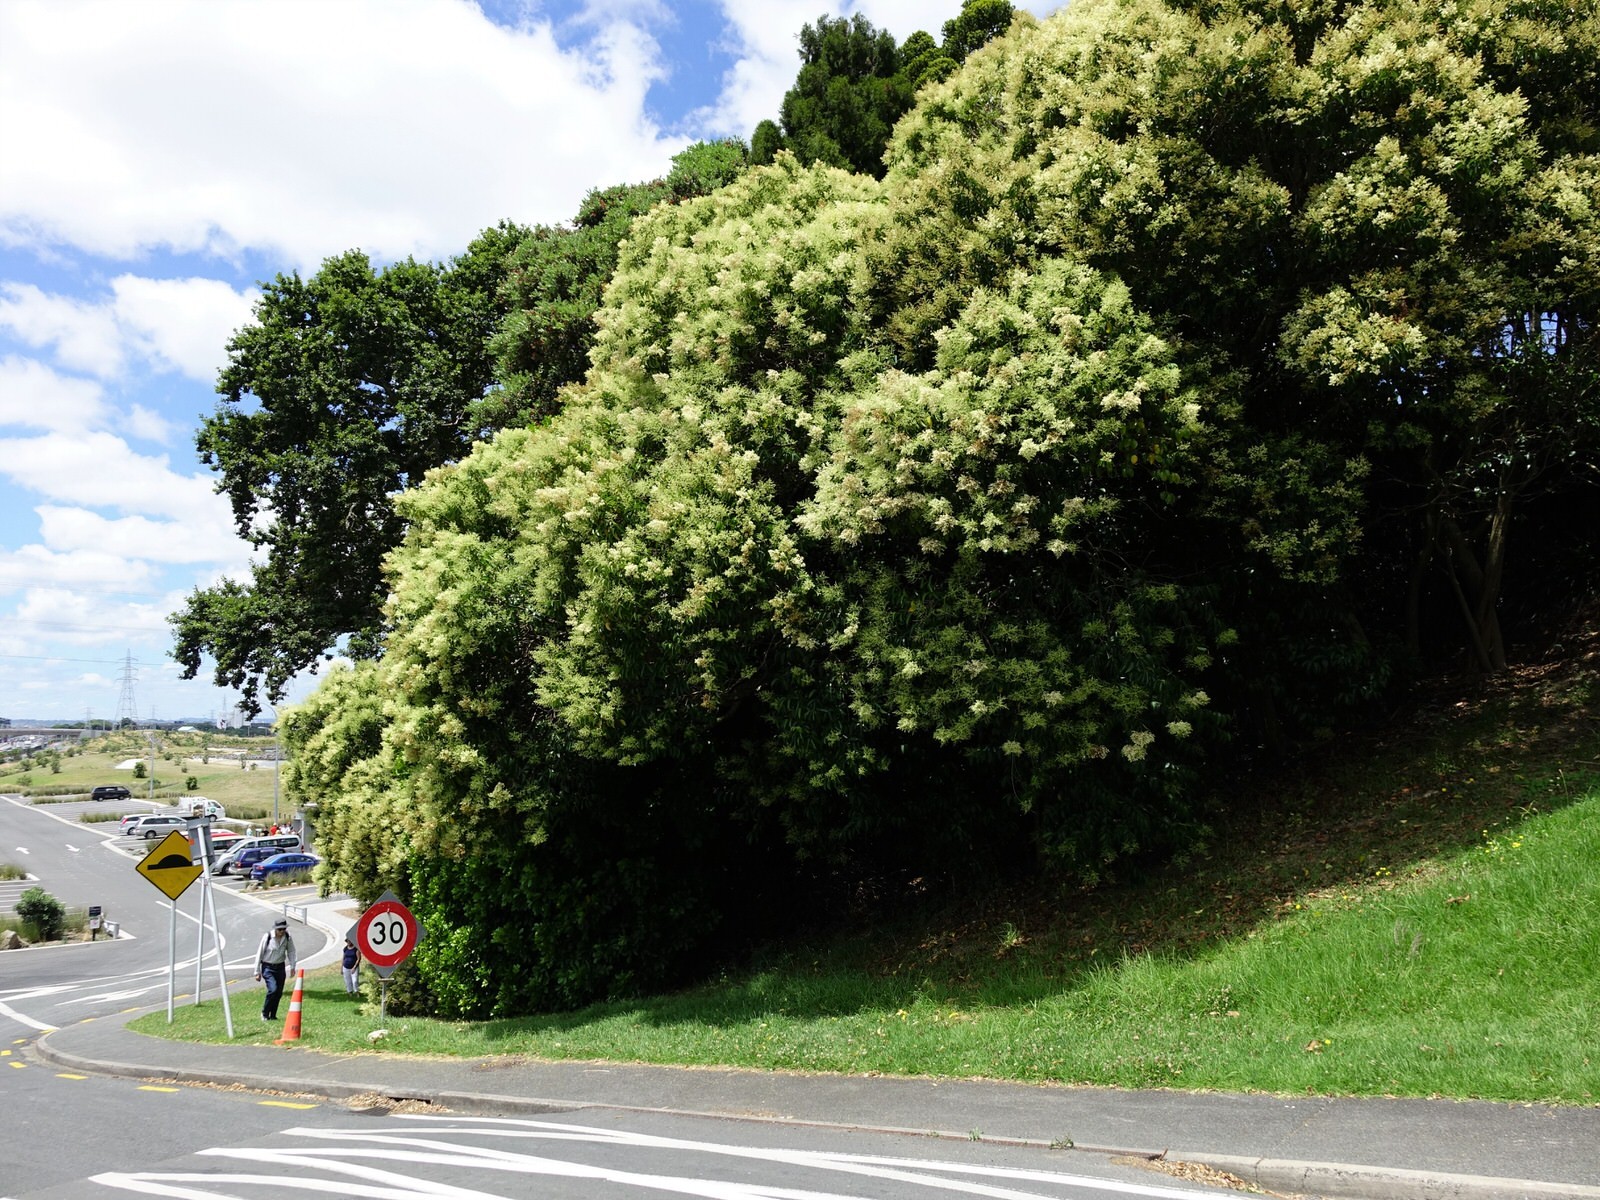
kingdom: Plantae
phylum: Tracheophyta
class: Magnoliopsida
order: Lamiales
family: Oleaceae
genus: Ligustrum
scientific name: Ligustrum lucidum
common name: Glossy privet
